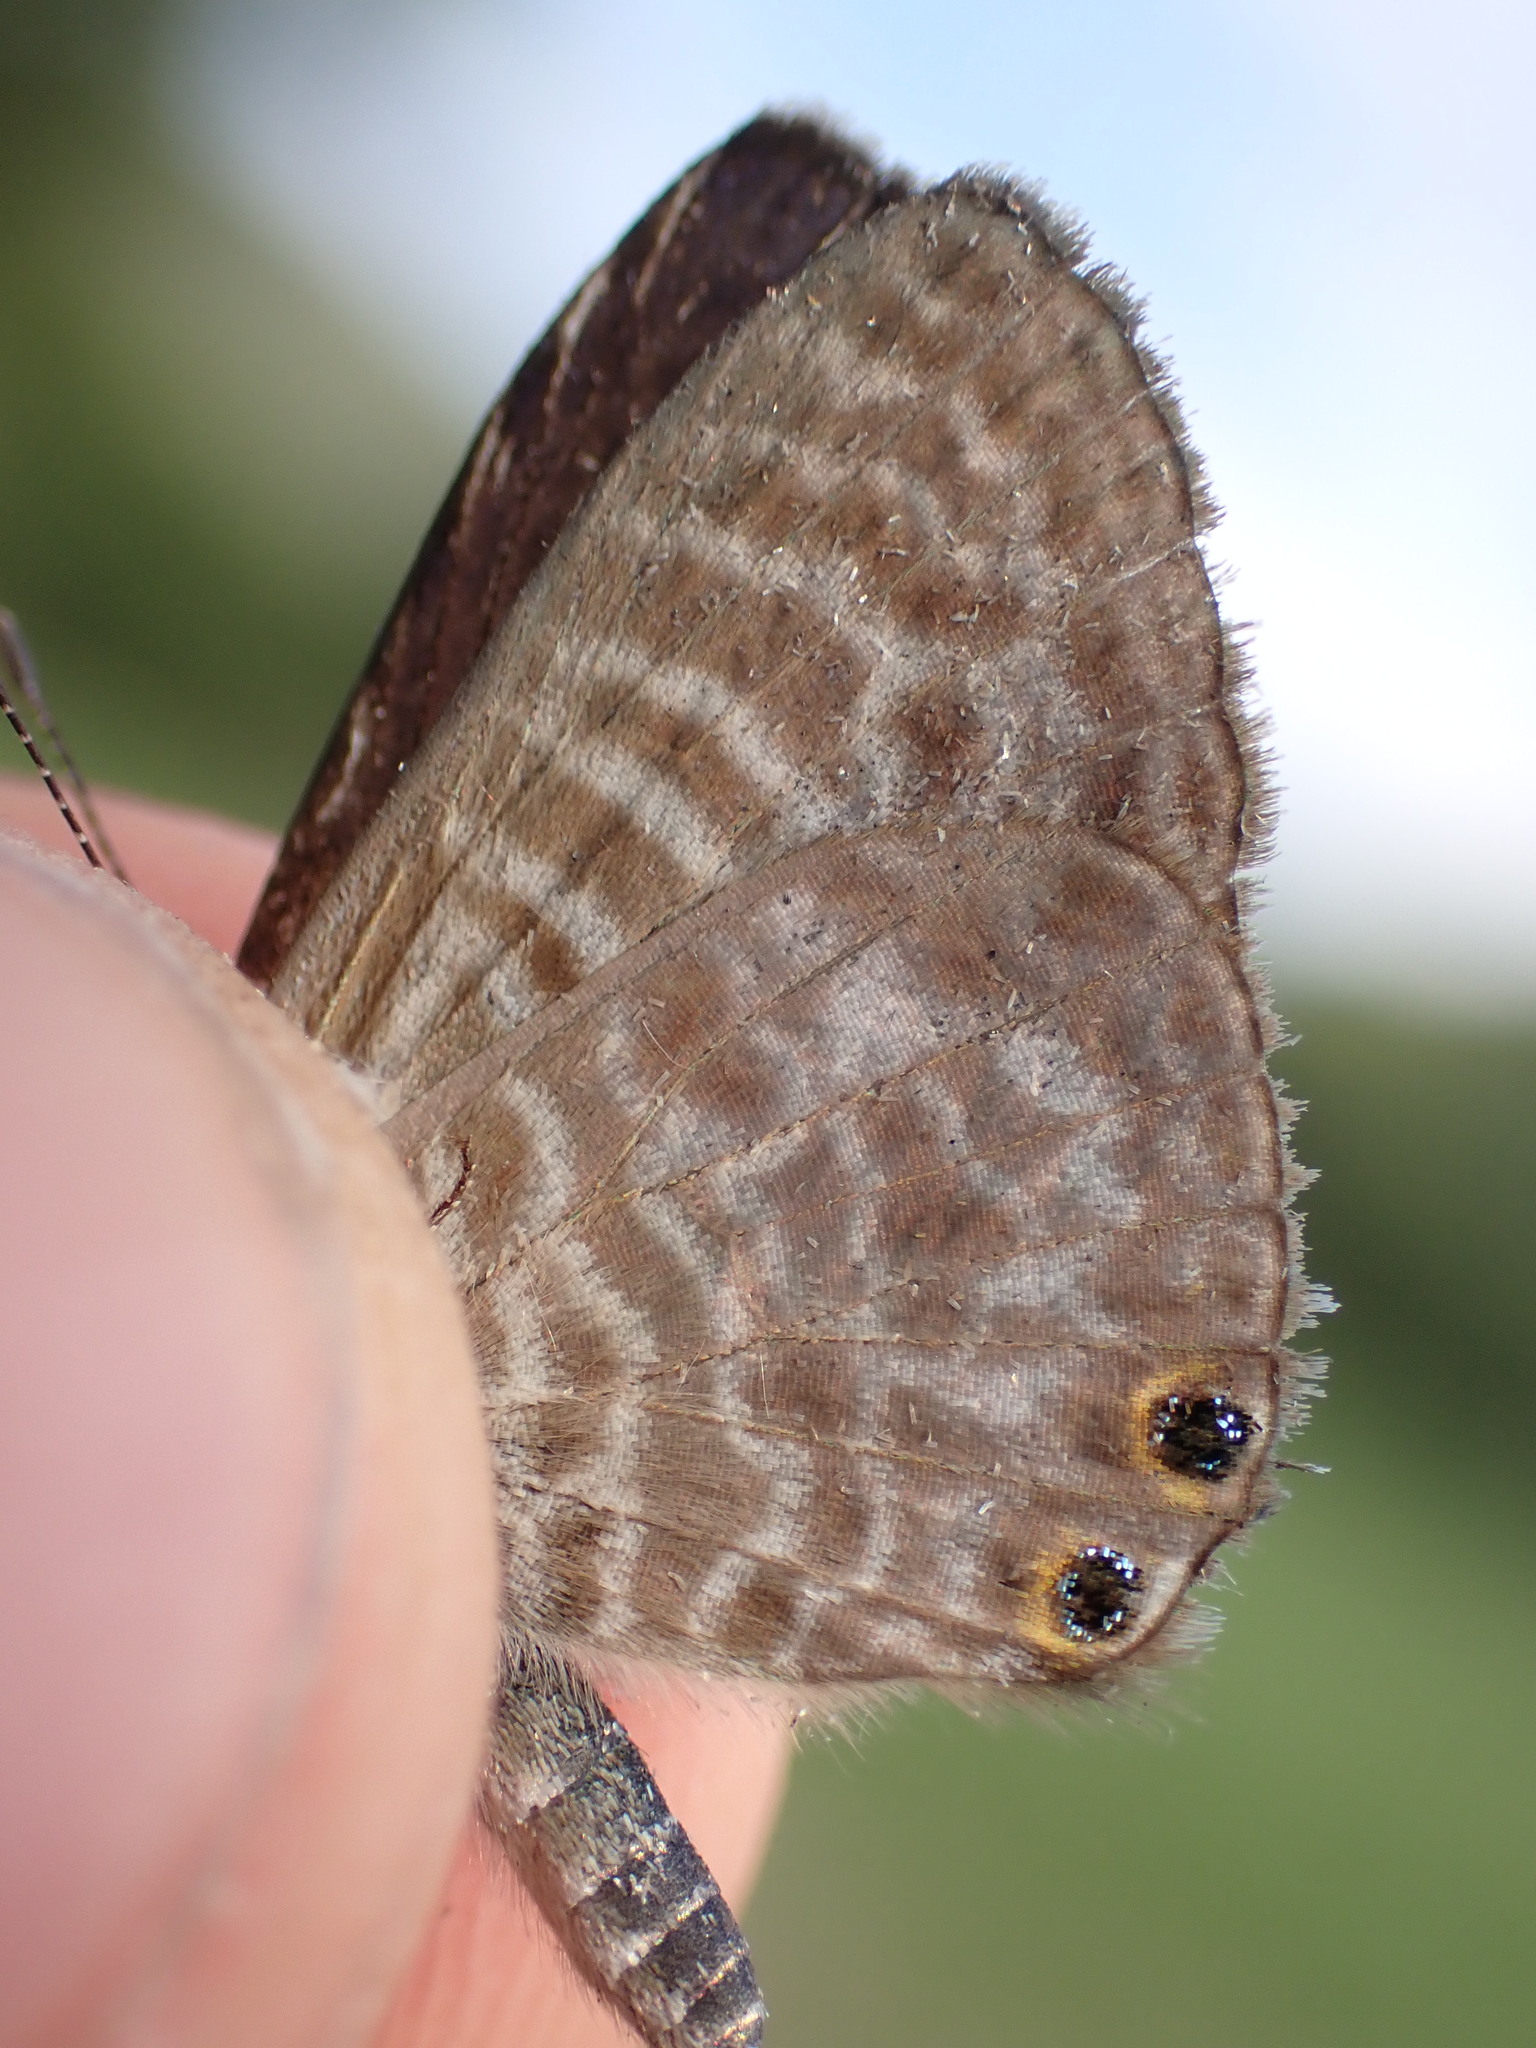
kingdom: Animalia
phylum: Arthropoda
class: Insecta
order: Lepidoptera
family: Lycaenidae
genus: Leptotes
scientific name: Leptotes pirithous
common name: Lang's short-tailed blue
